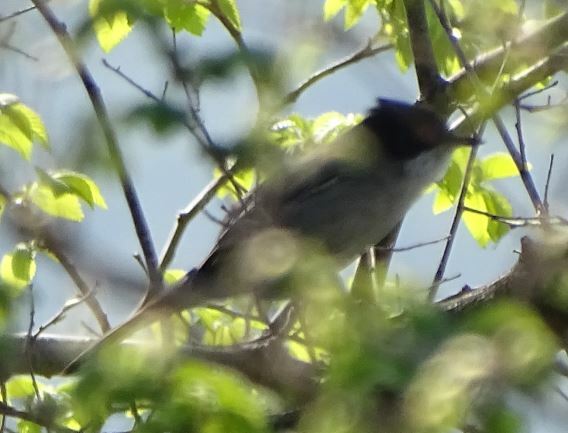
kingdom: Animalia
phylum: Chordata
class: Aves
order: Passeriformes
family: Sylviidae
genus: Curruca
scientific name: Curruca melanocephala
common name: Sardinian warbler
